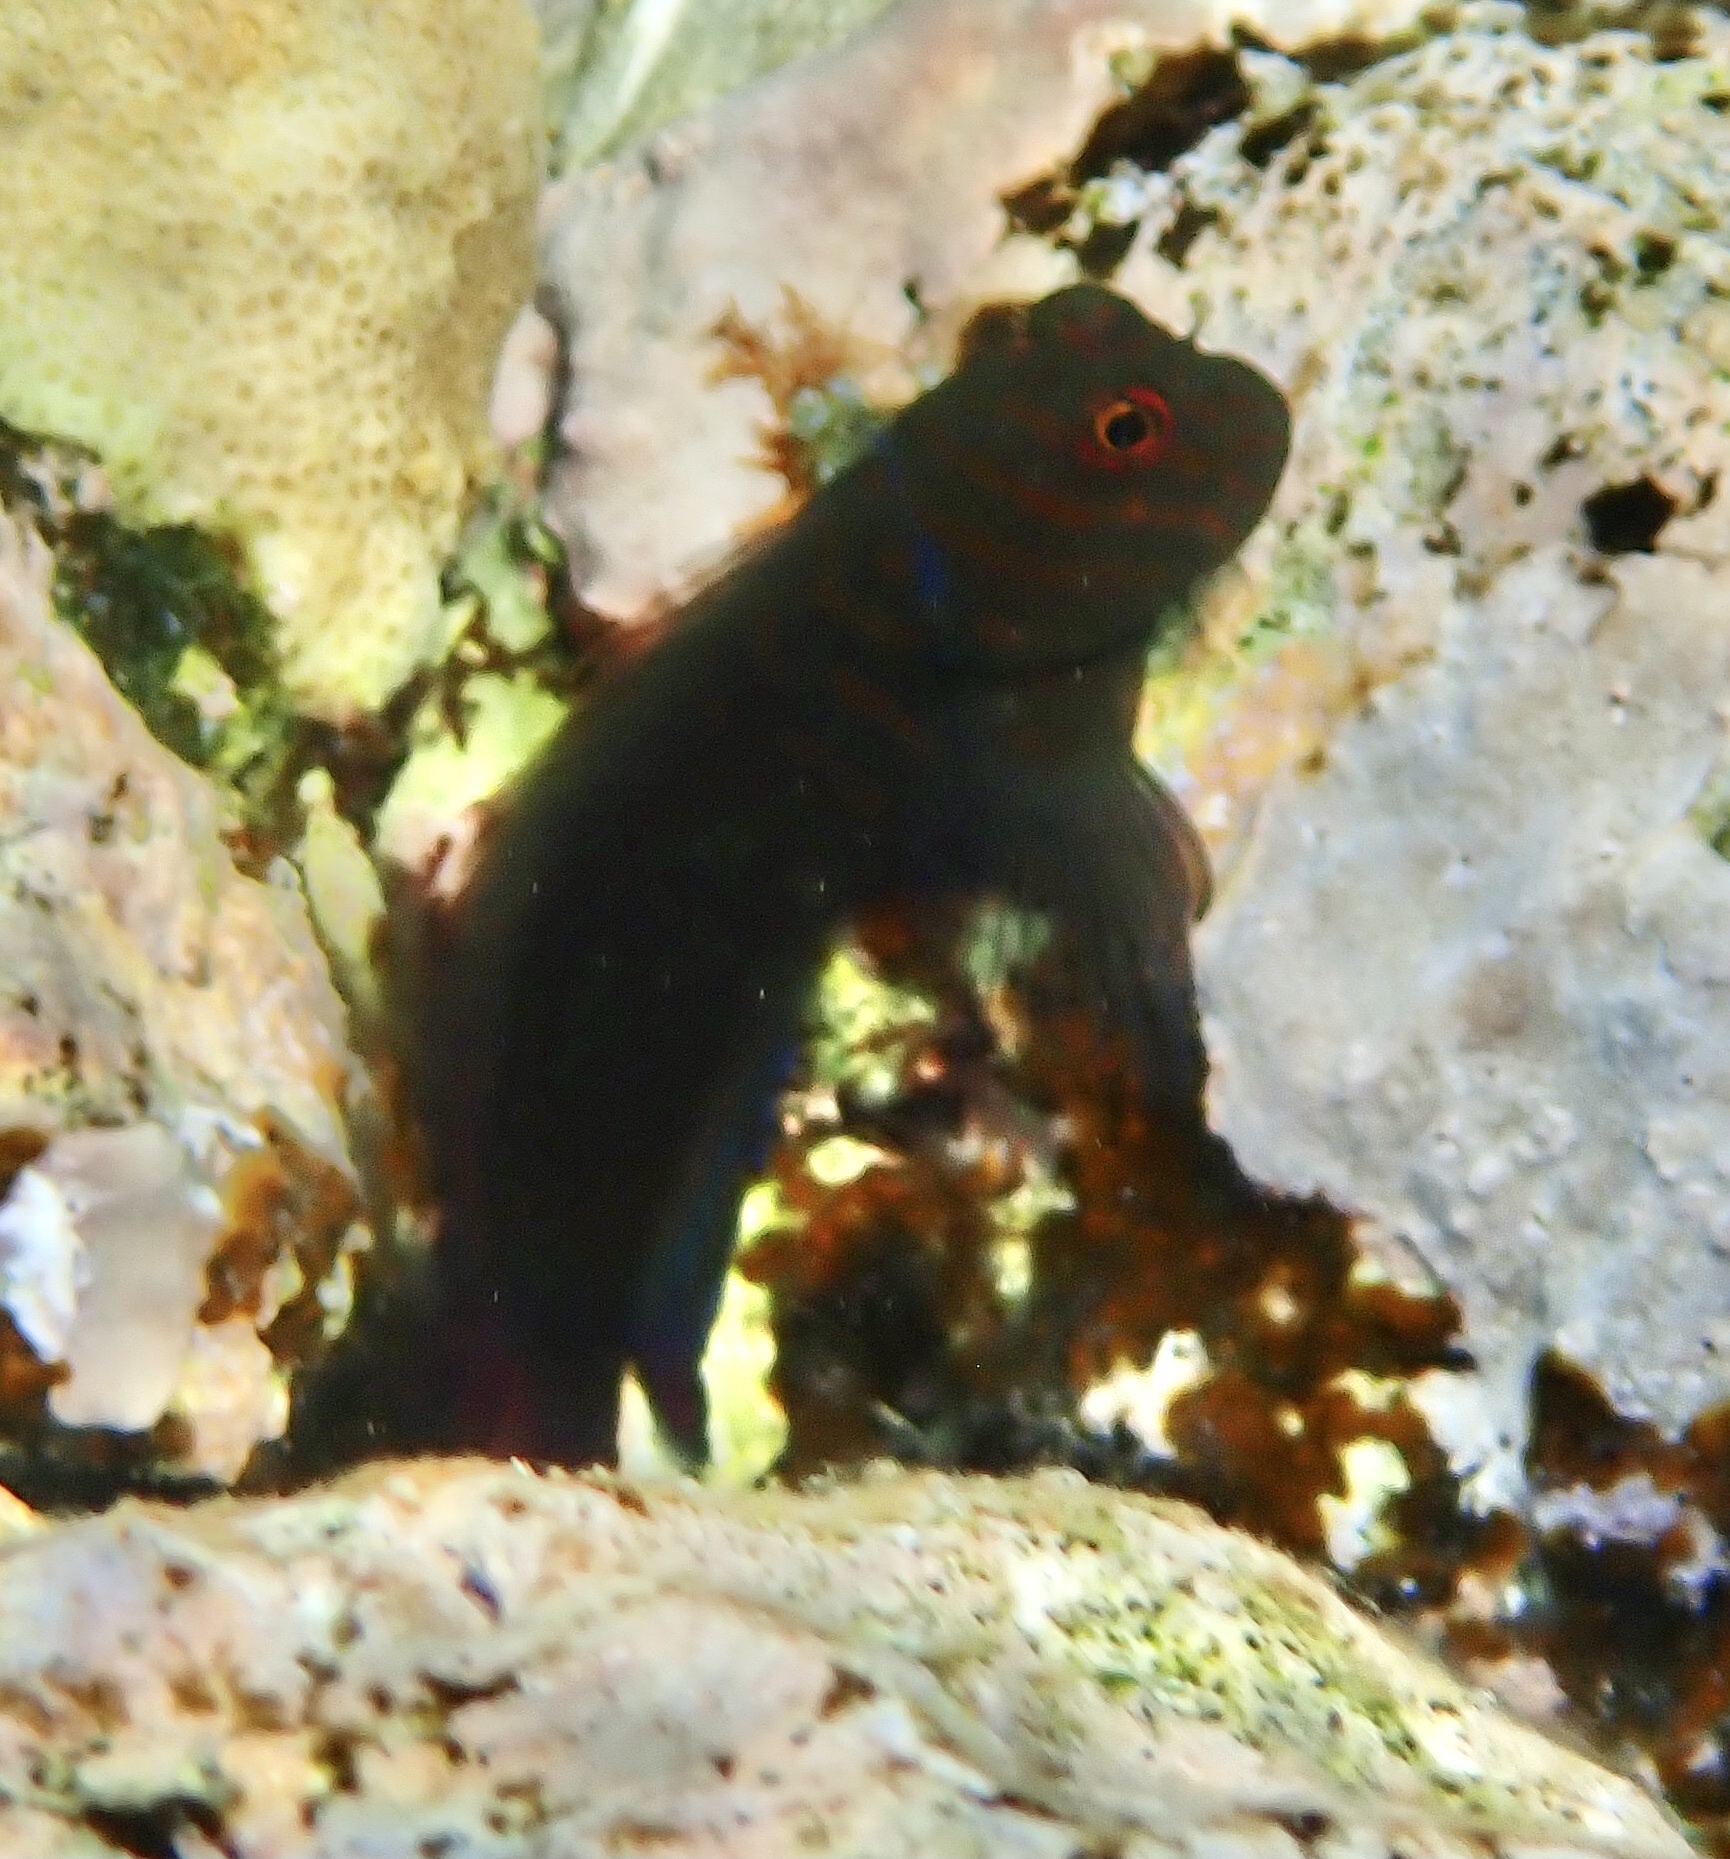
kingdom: Animalia
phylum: Chordata
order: Perciformes
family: Blenniidae
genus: Cirripectes
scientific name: Cirripectes castaneus
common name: Chestnut blenny
